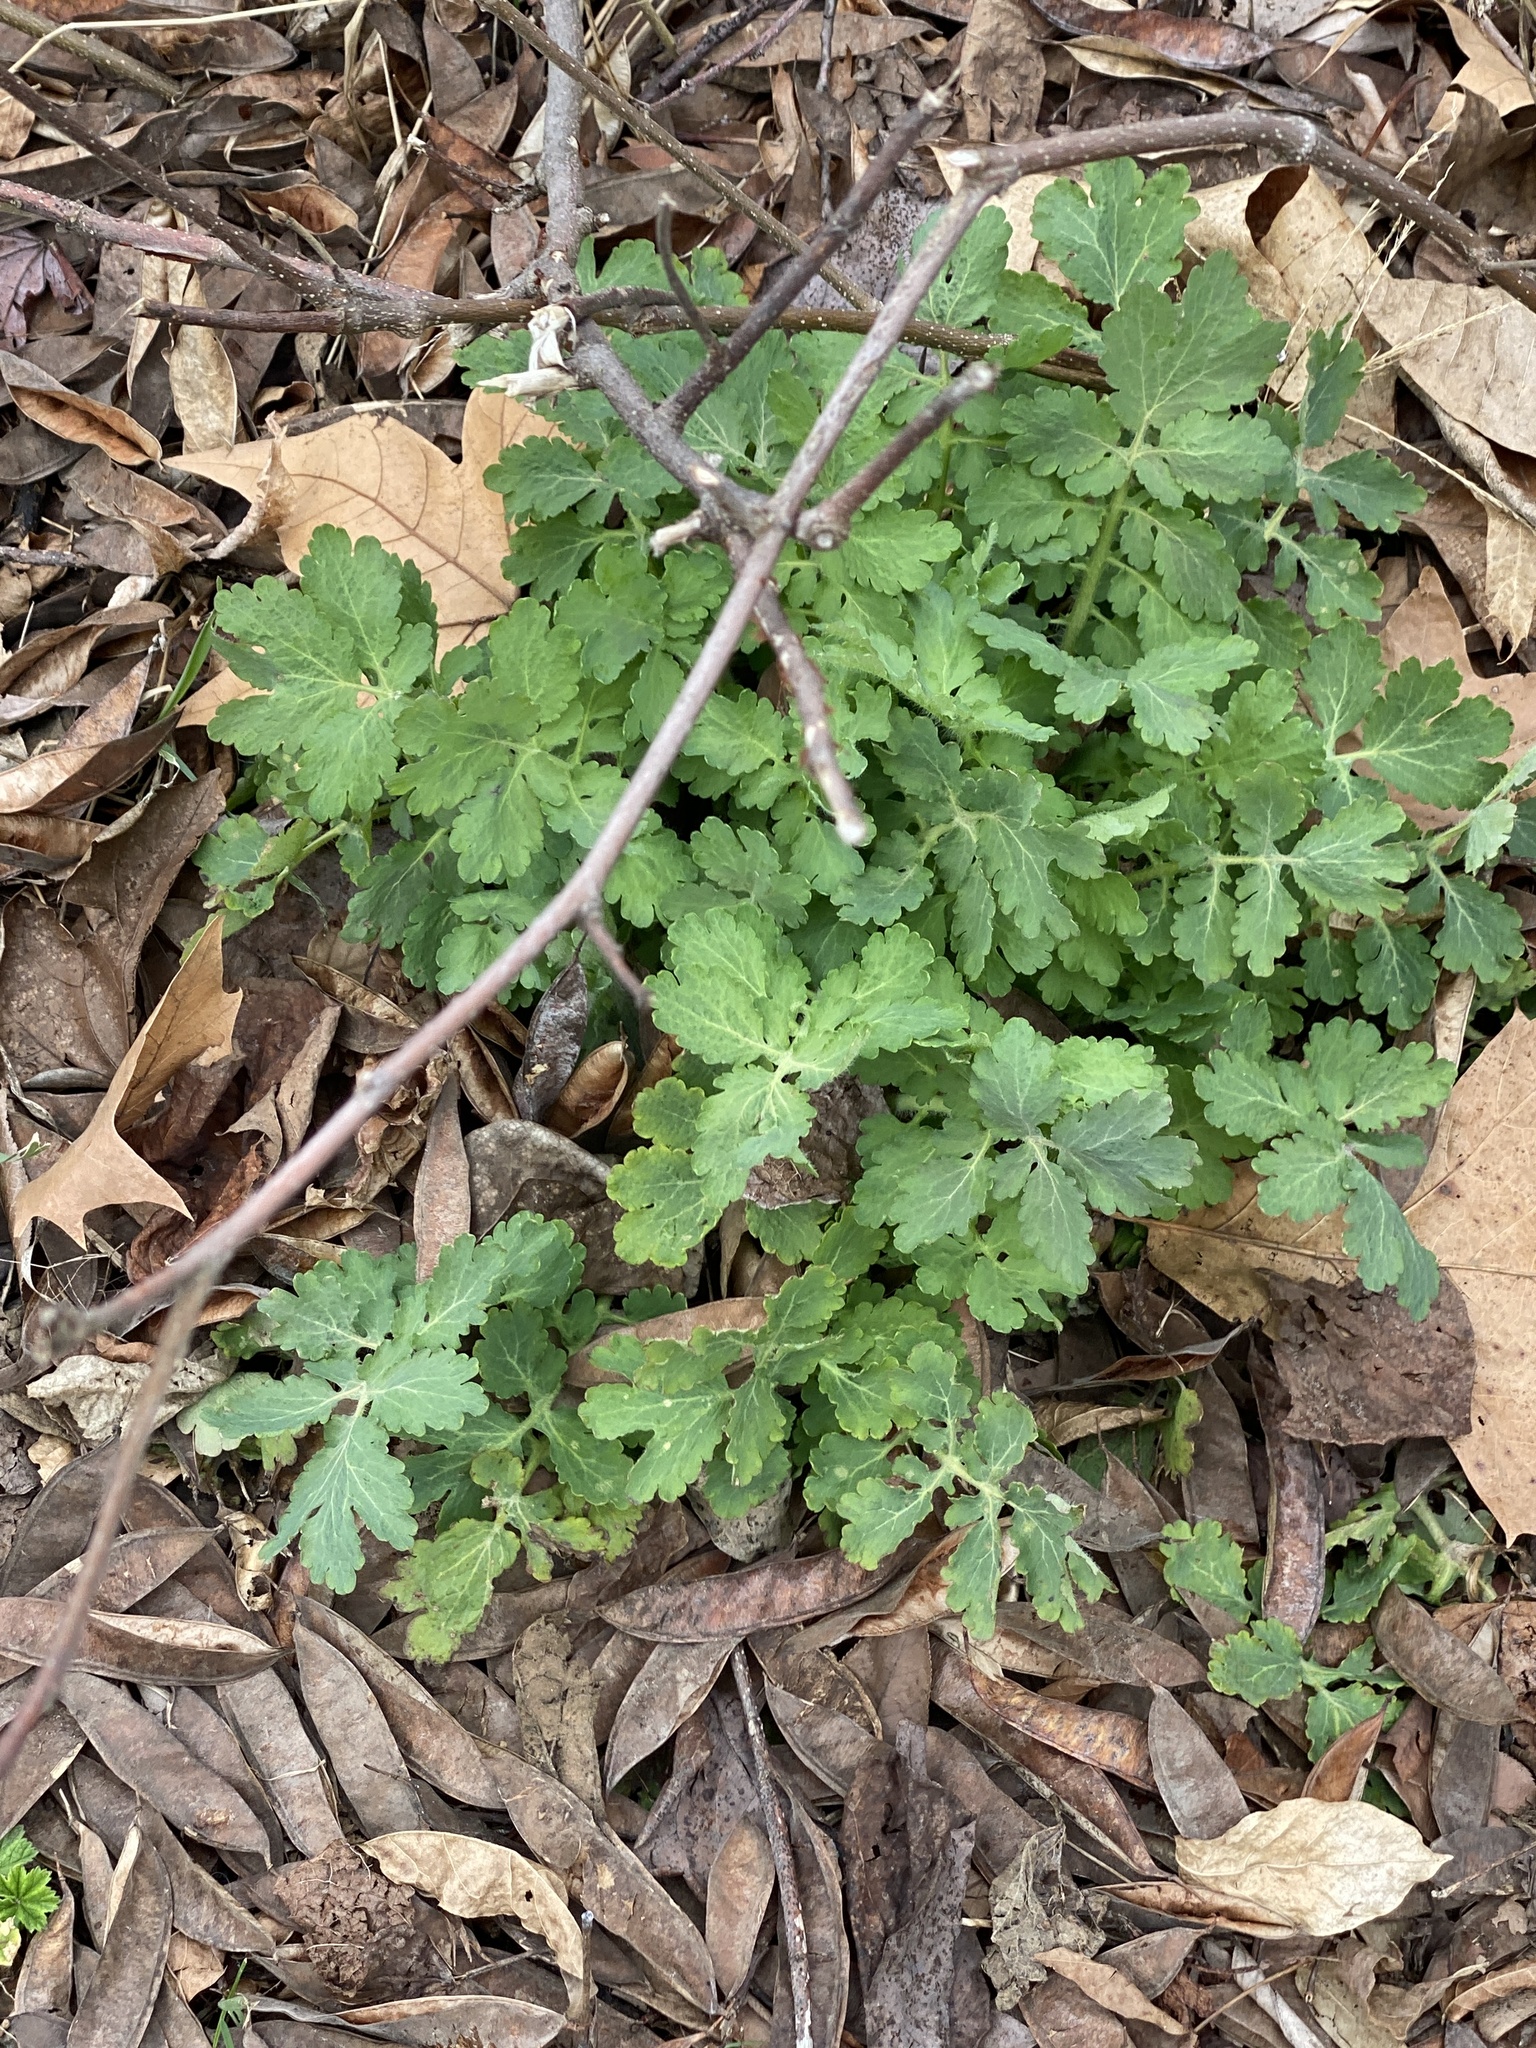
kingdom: Plantae
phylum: Tracheophyta
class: Magnoliopsida
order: Ranunculales
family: Papaveraceae
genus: Chelidonium
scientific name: Chelidonium majus
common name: Greater celandine
